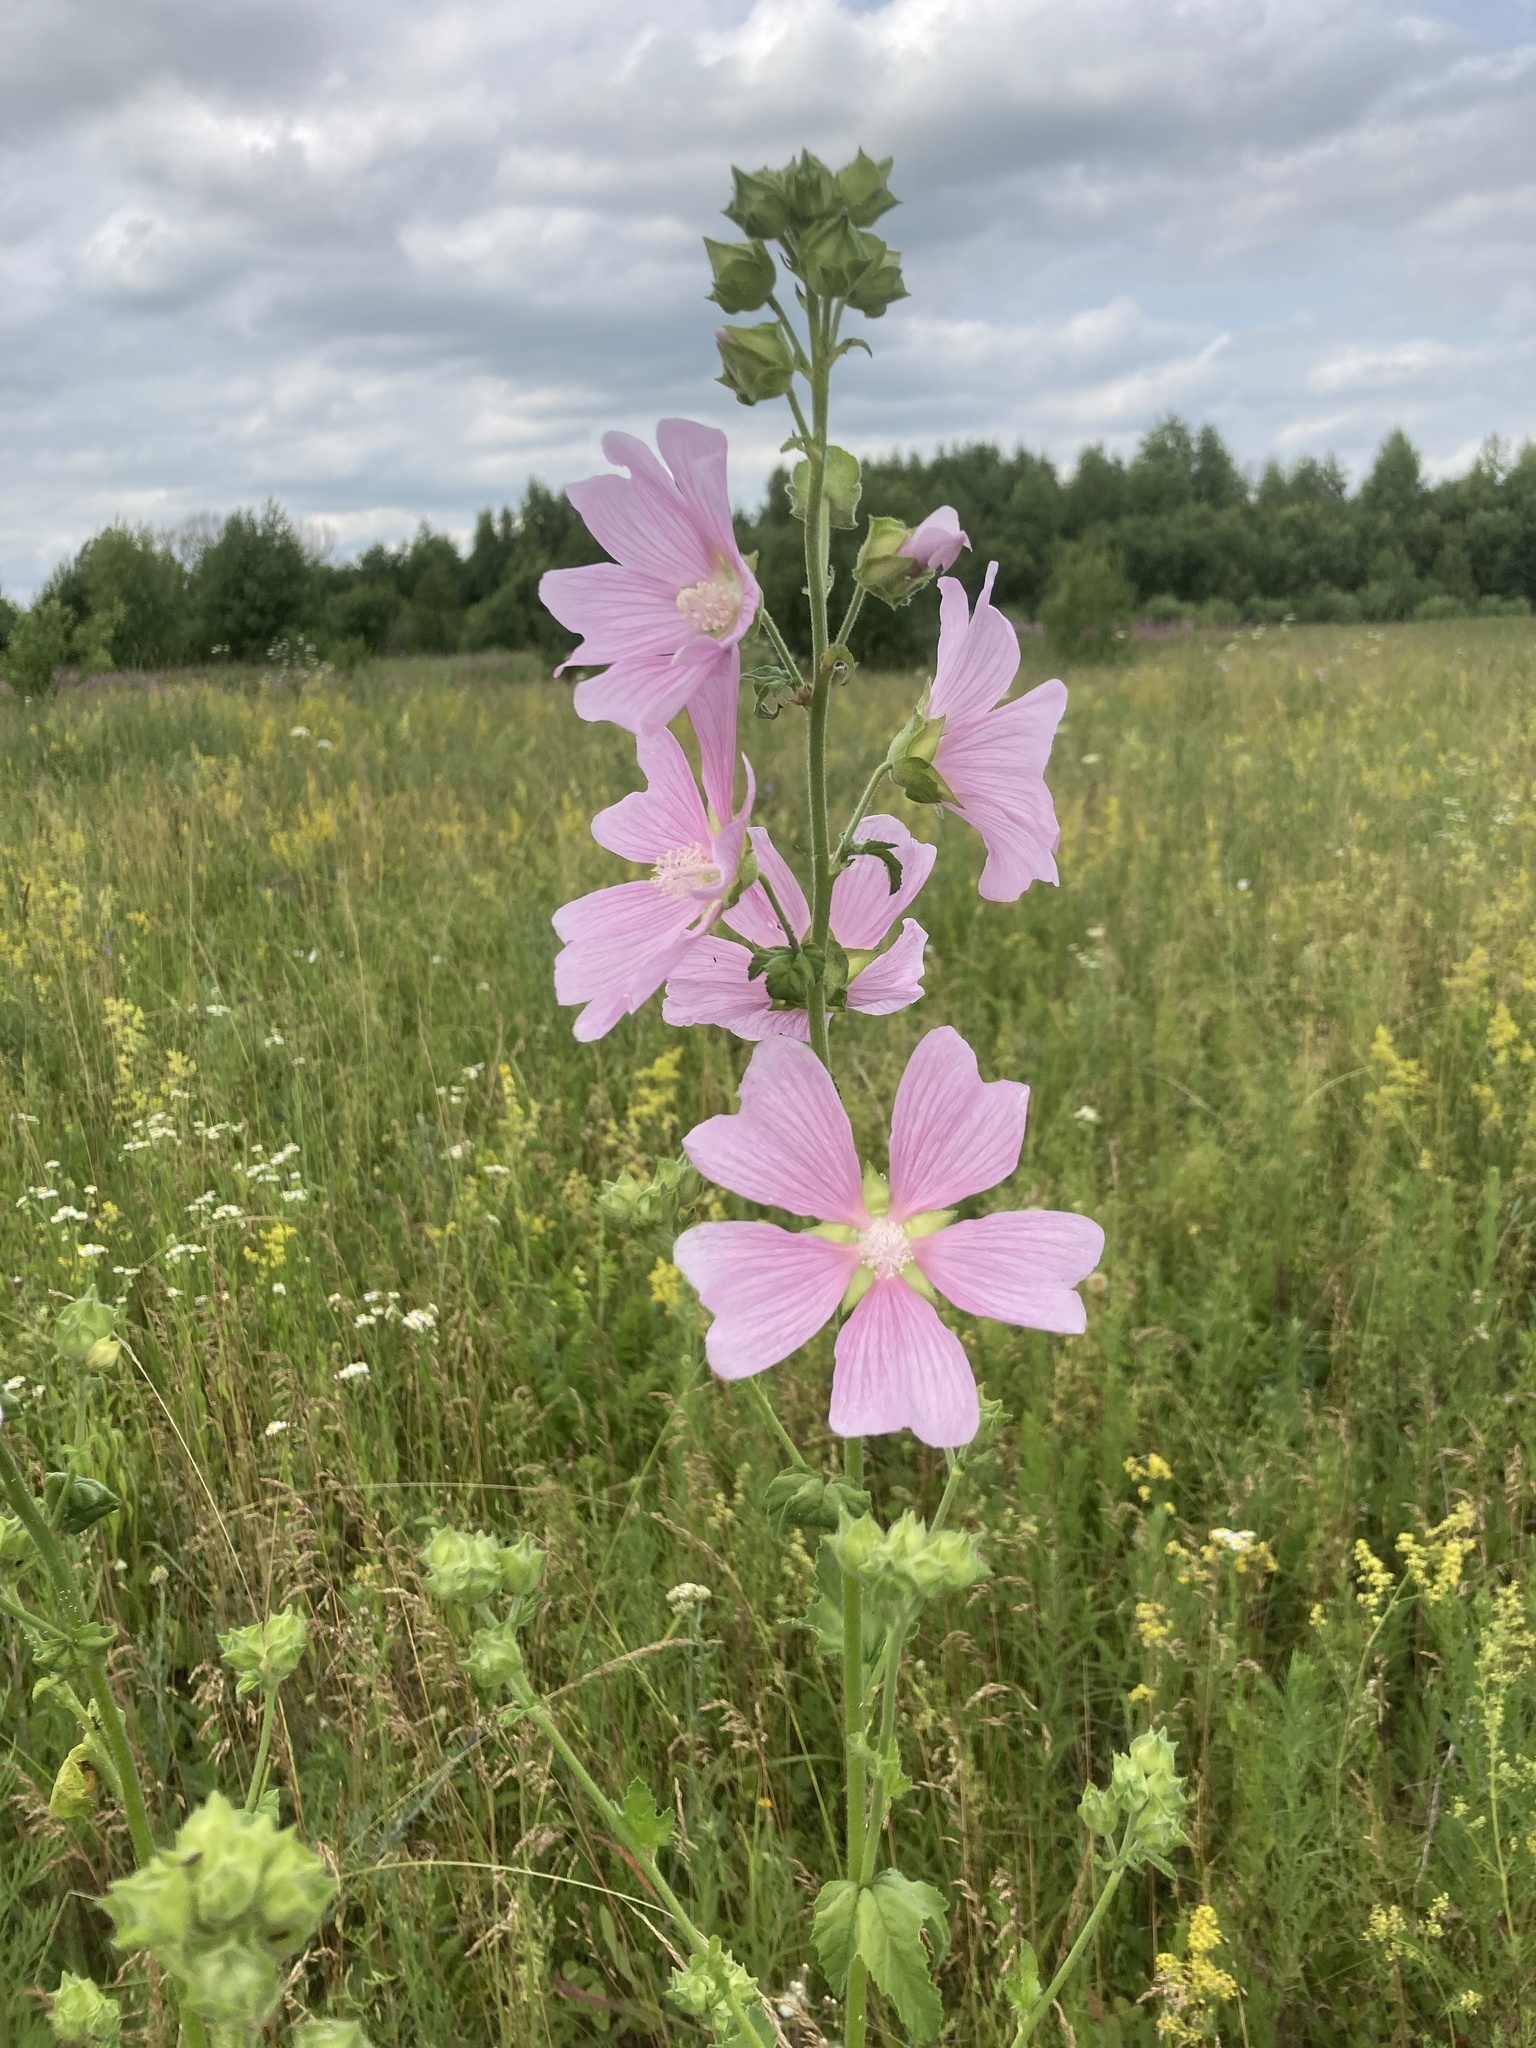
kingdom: Plantae
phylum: Tracheophyta
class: Magnoliopsida
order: Malvales
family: Malvaceae
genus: Malva
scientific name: Malva thuringiaca
